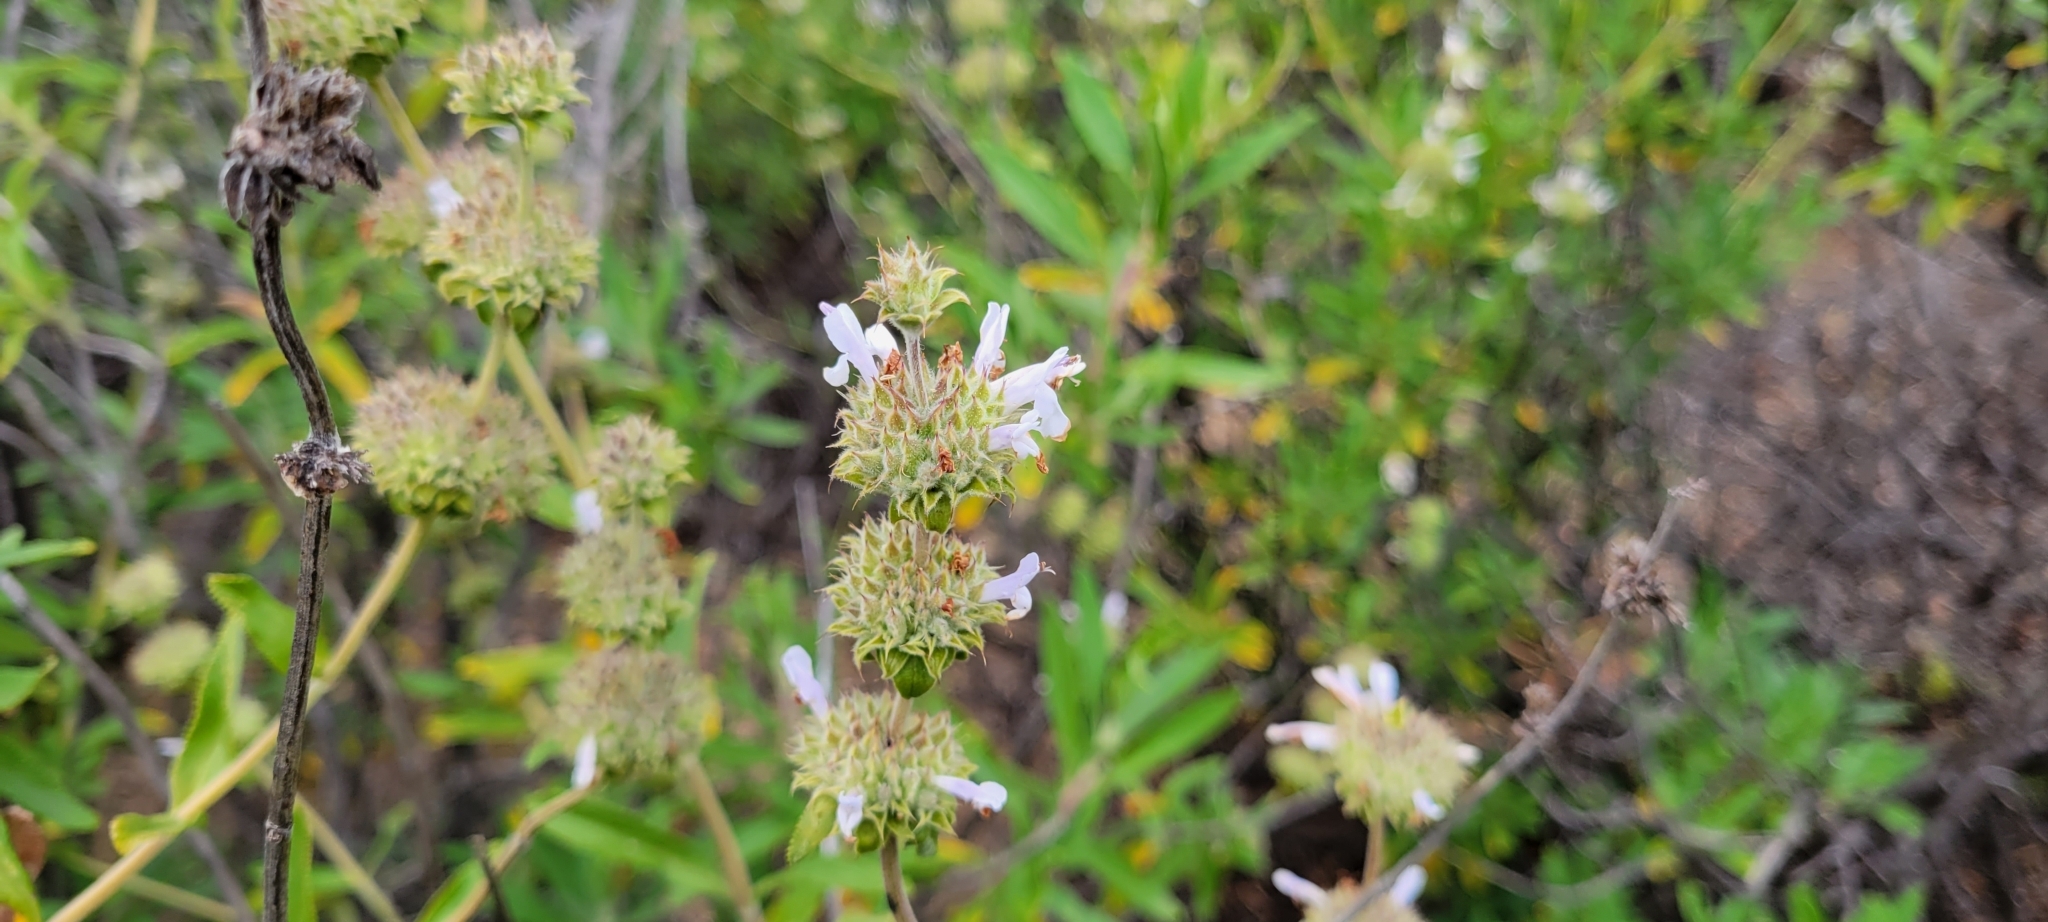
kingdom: Plantae
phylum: Tracheophyta
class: Magnoliopsida
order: Lamiales
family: Lamiaceae
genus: Salvia
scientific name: Salvia mellifera
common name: Black sage
